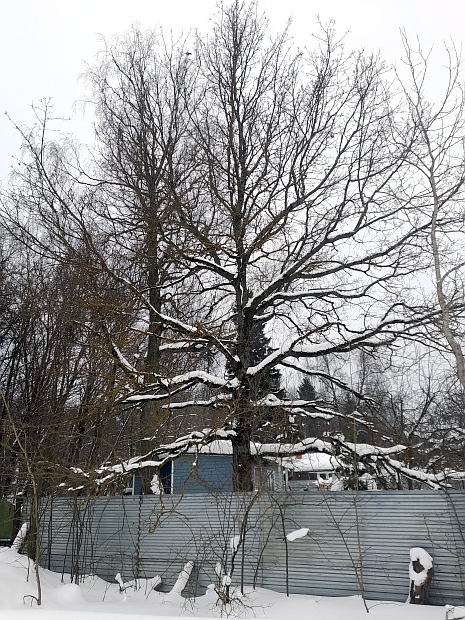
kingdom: Plantae
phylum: Tracheophyta
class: Magnoliopsida
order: Fagales
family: Fagaceae
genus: Quercus
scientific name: Quercus robur
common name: Pedunculate oak
